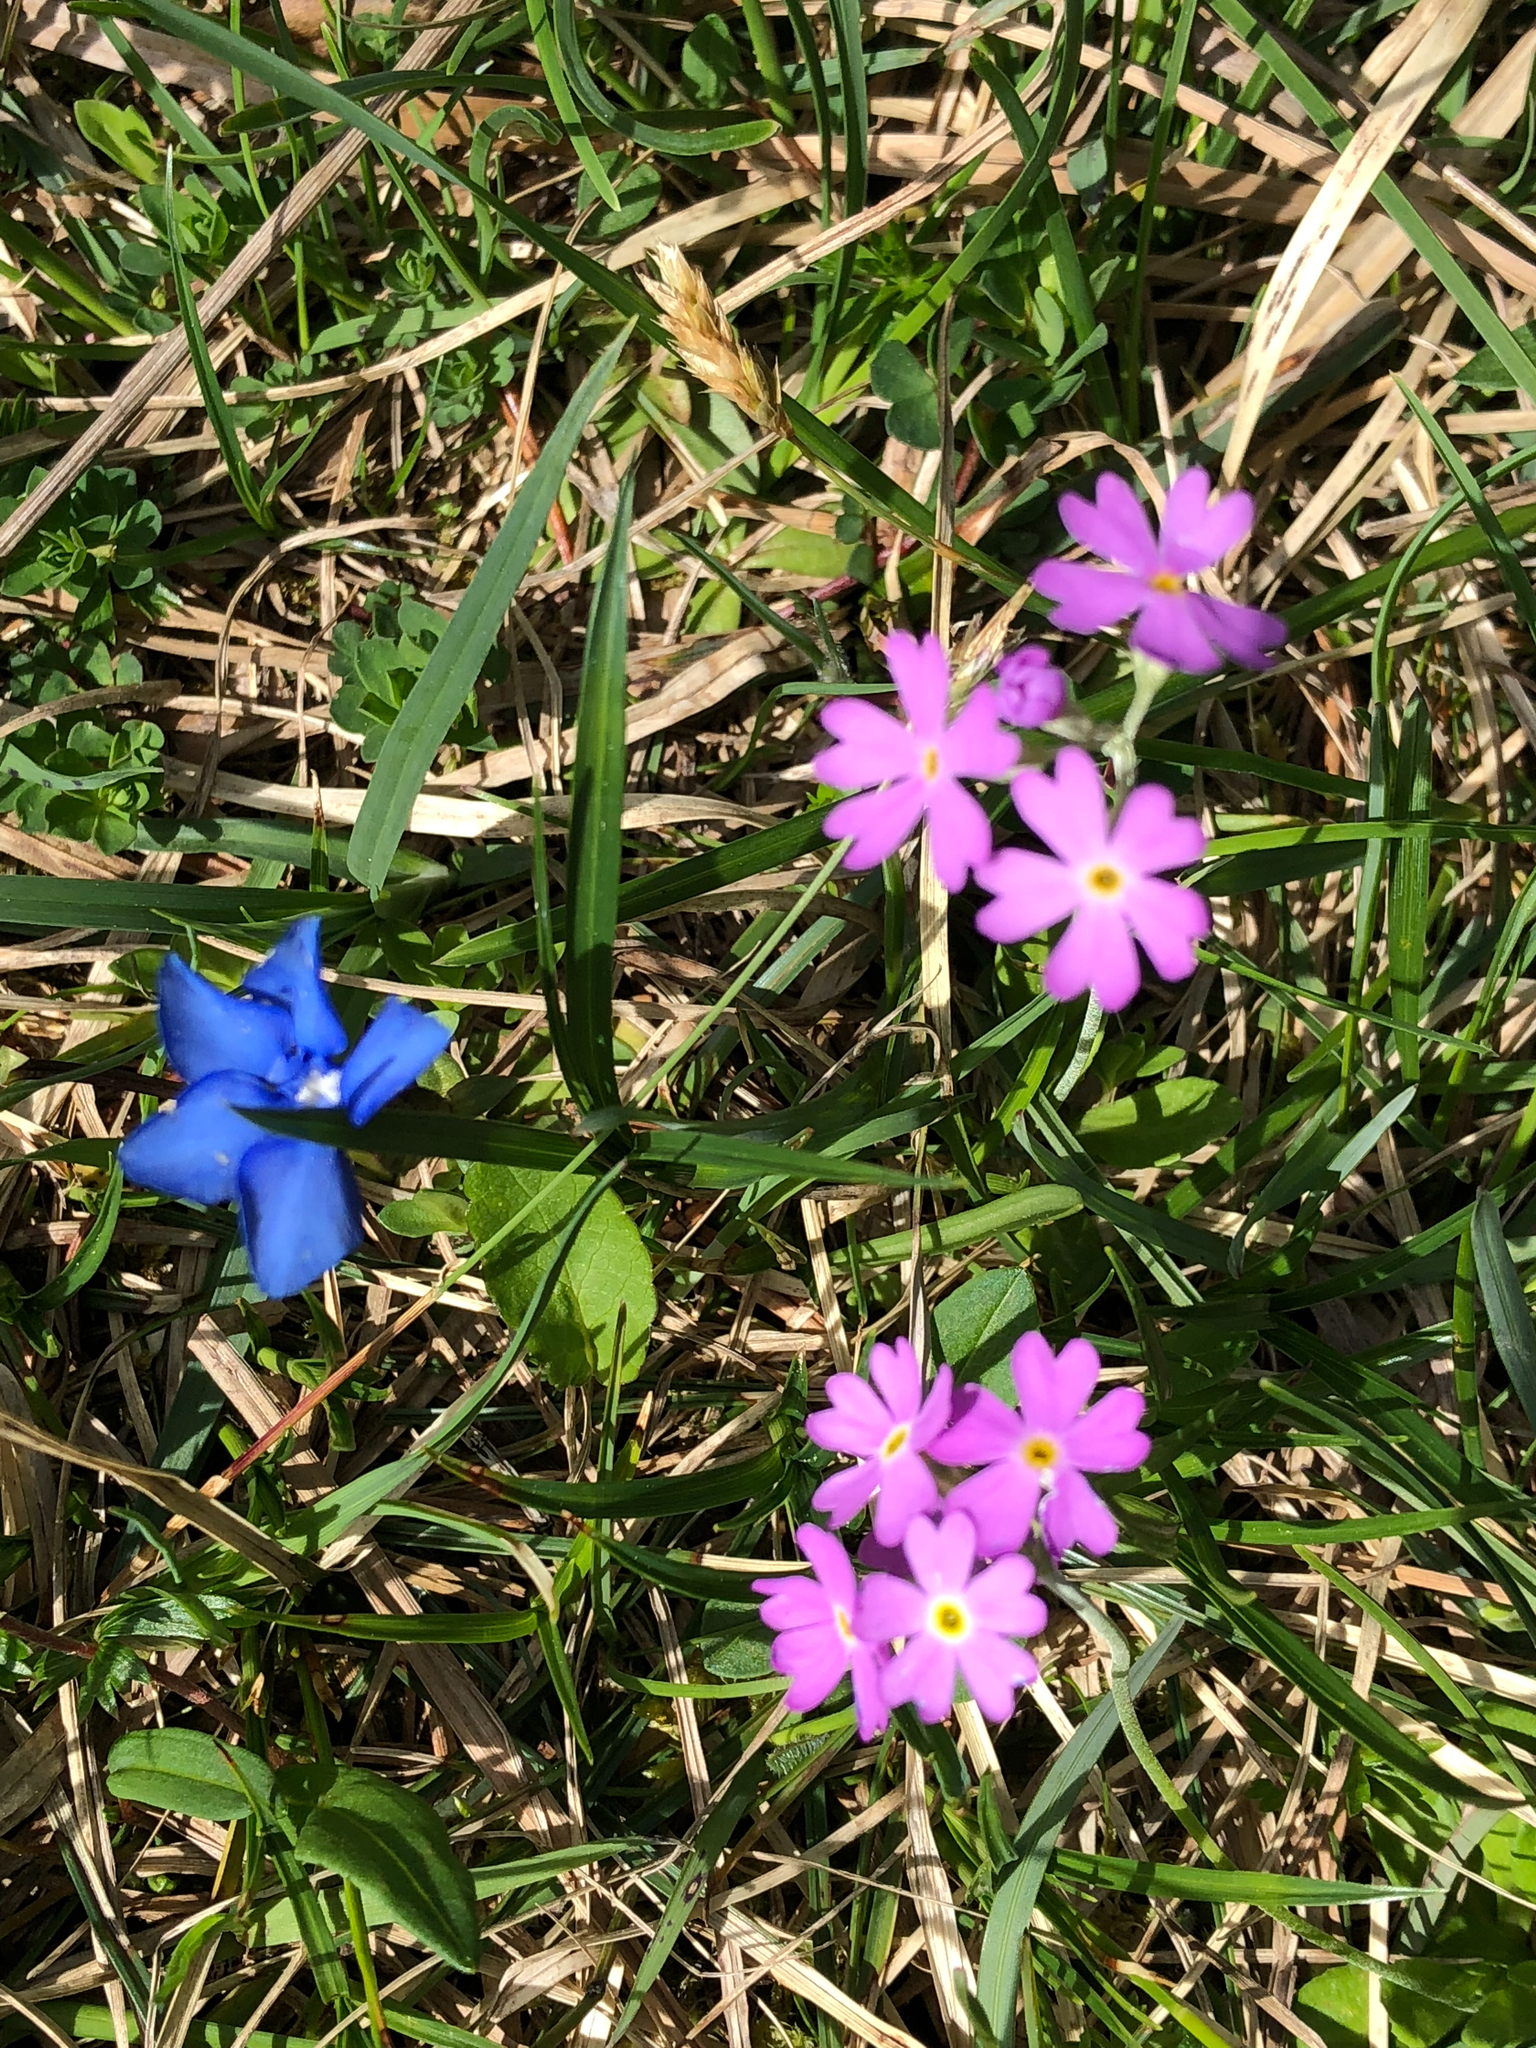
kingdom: Plantae
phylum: Tracheophyta
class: Magnoliopsida
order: Ericales
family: Primulaceae
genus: Primula
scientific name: Primula farinosa
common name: Bird's-eye primrose
